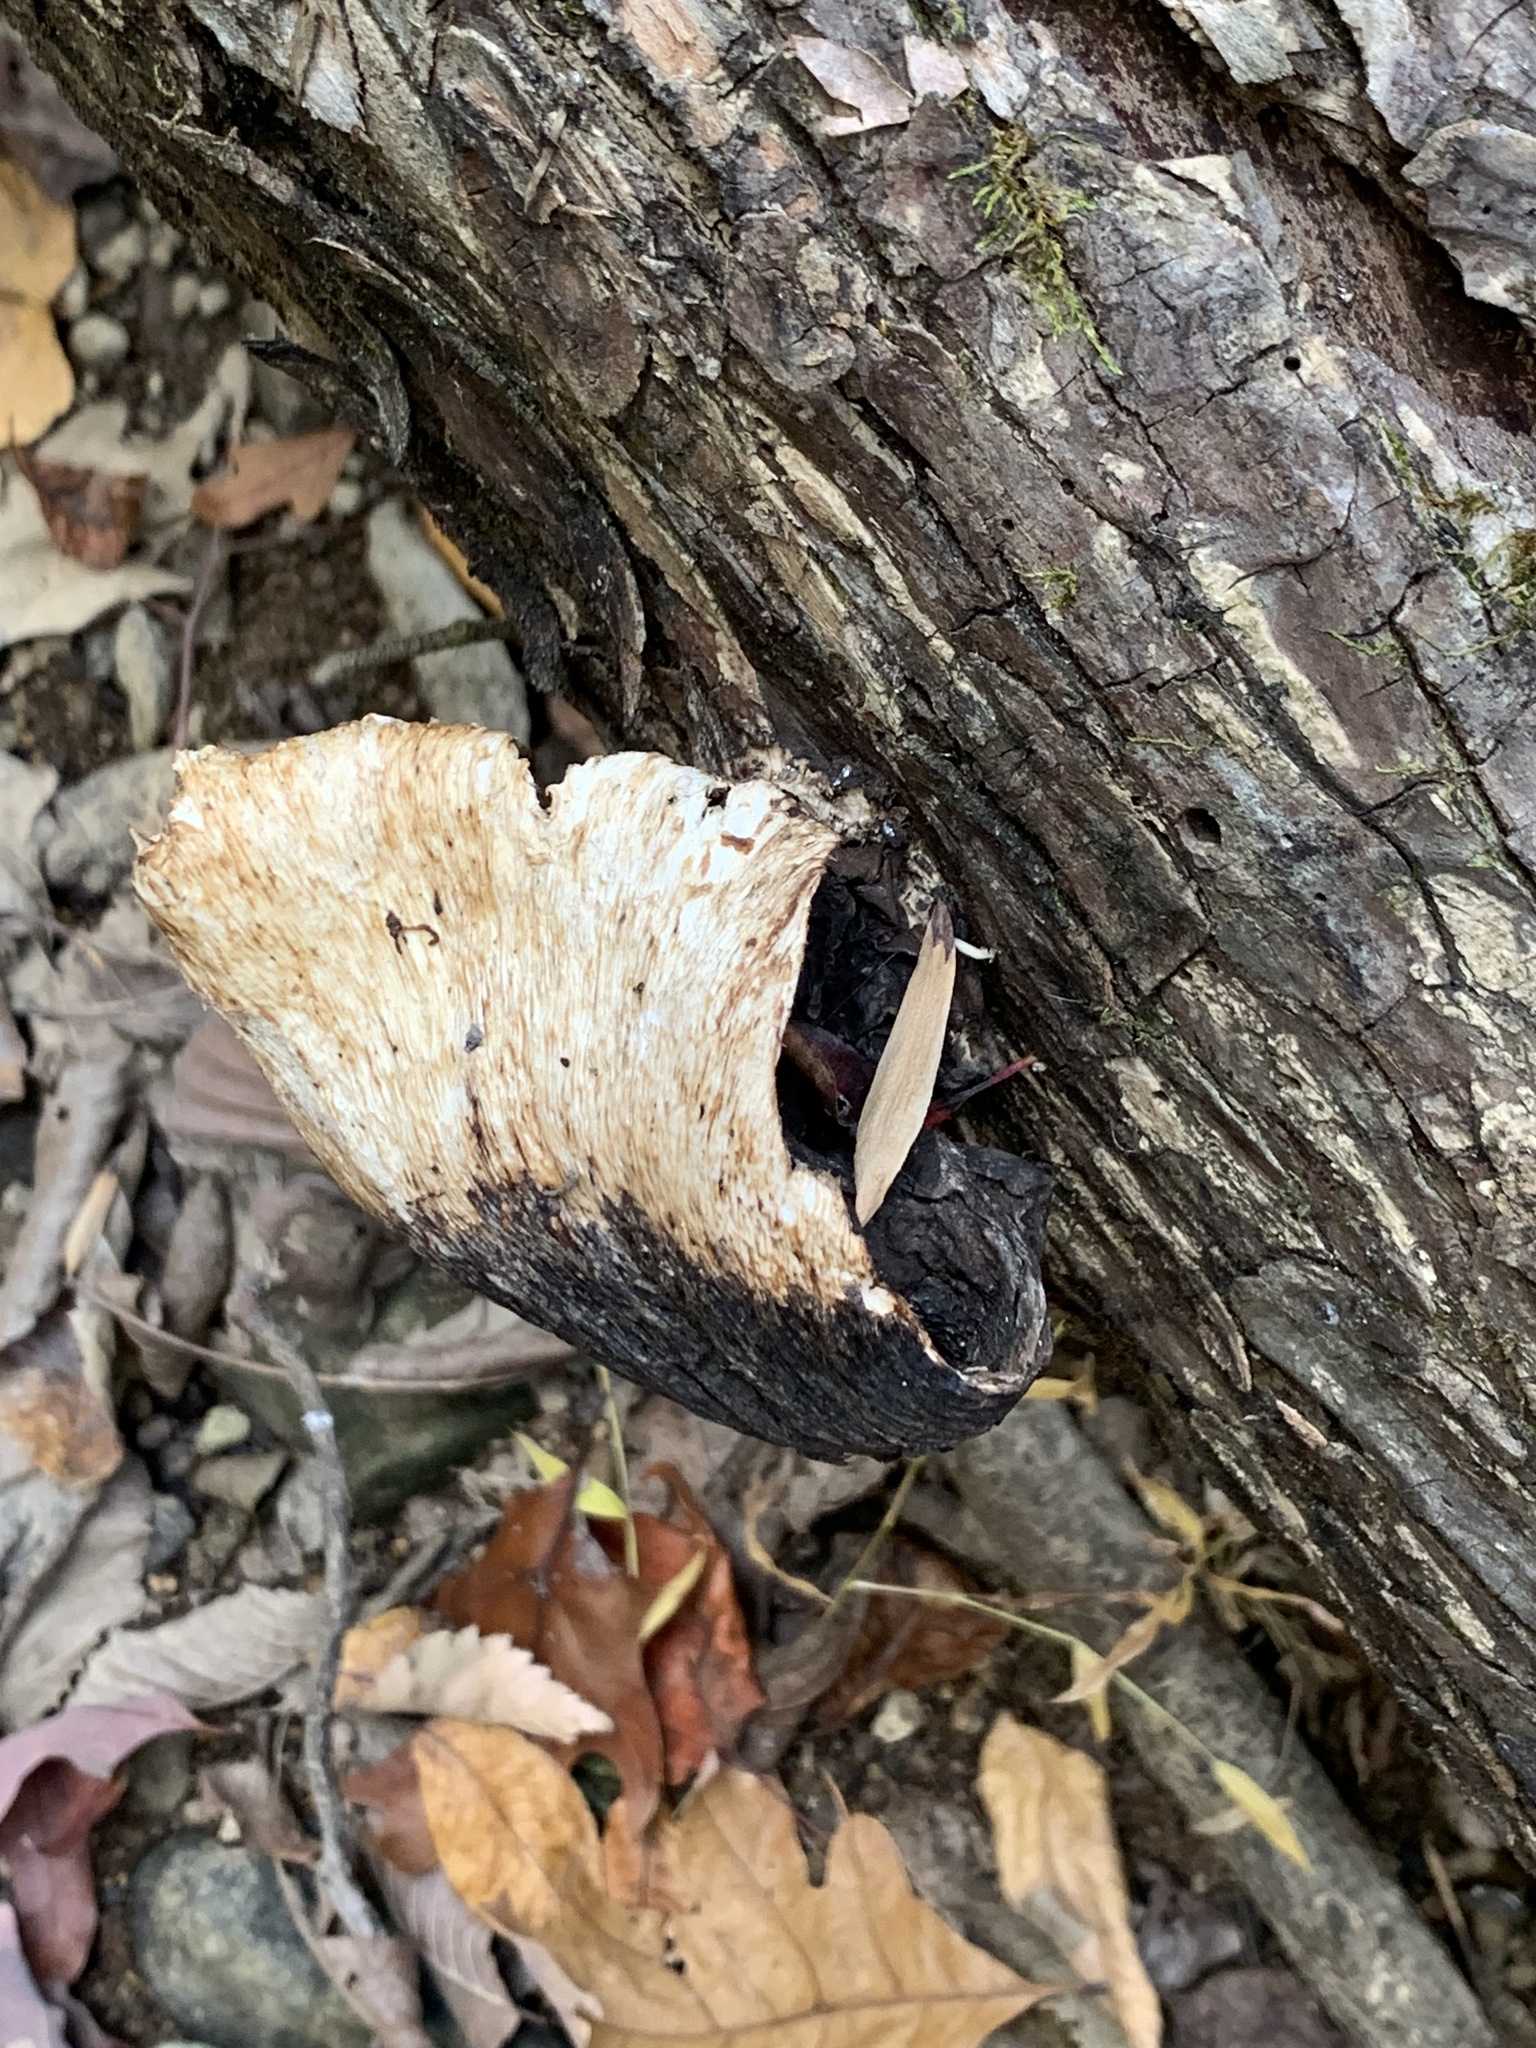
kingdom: Fungi
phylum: Basidiomycota
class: Agaricomycetes
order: Polyporales
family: Polyporaceae
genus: Cerioporus
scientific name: Cerioporus leptocephalus
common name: Blackfoot polypore
